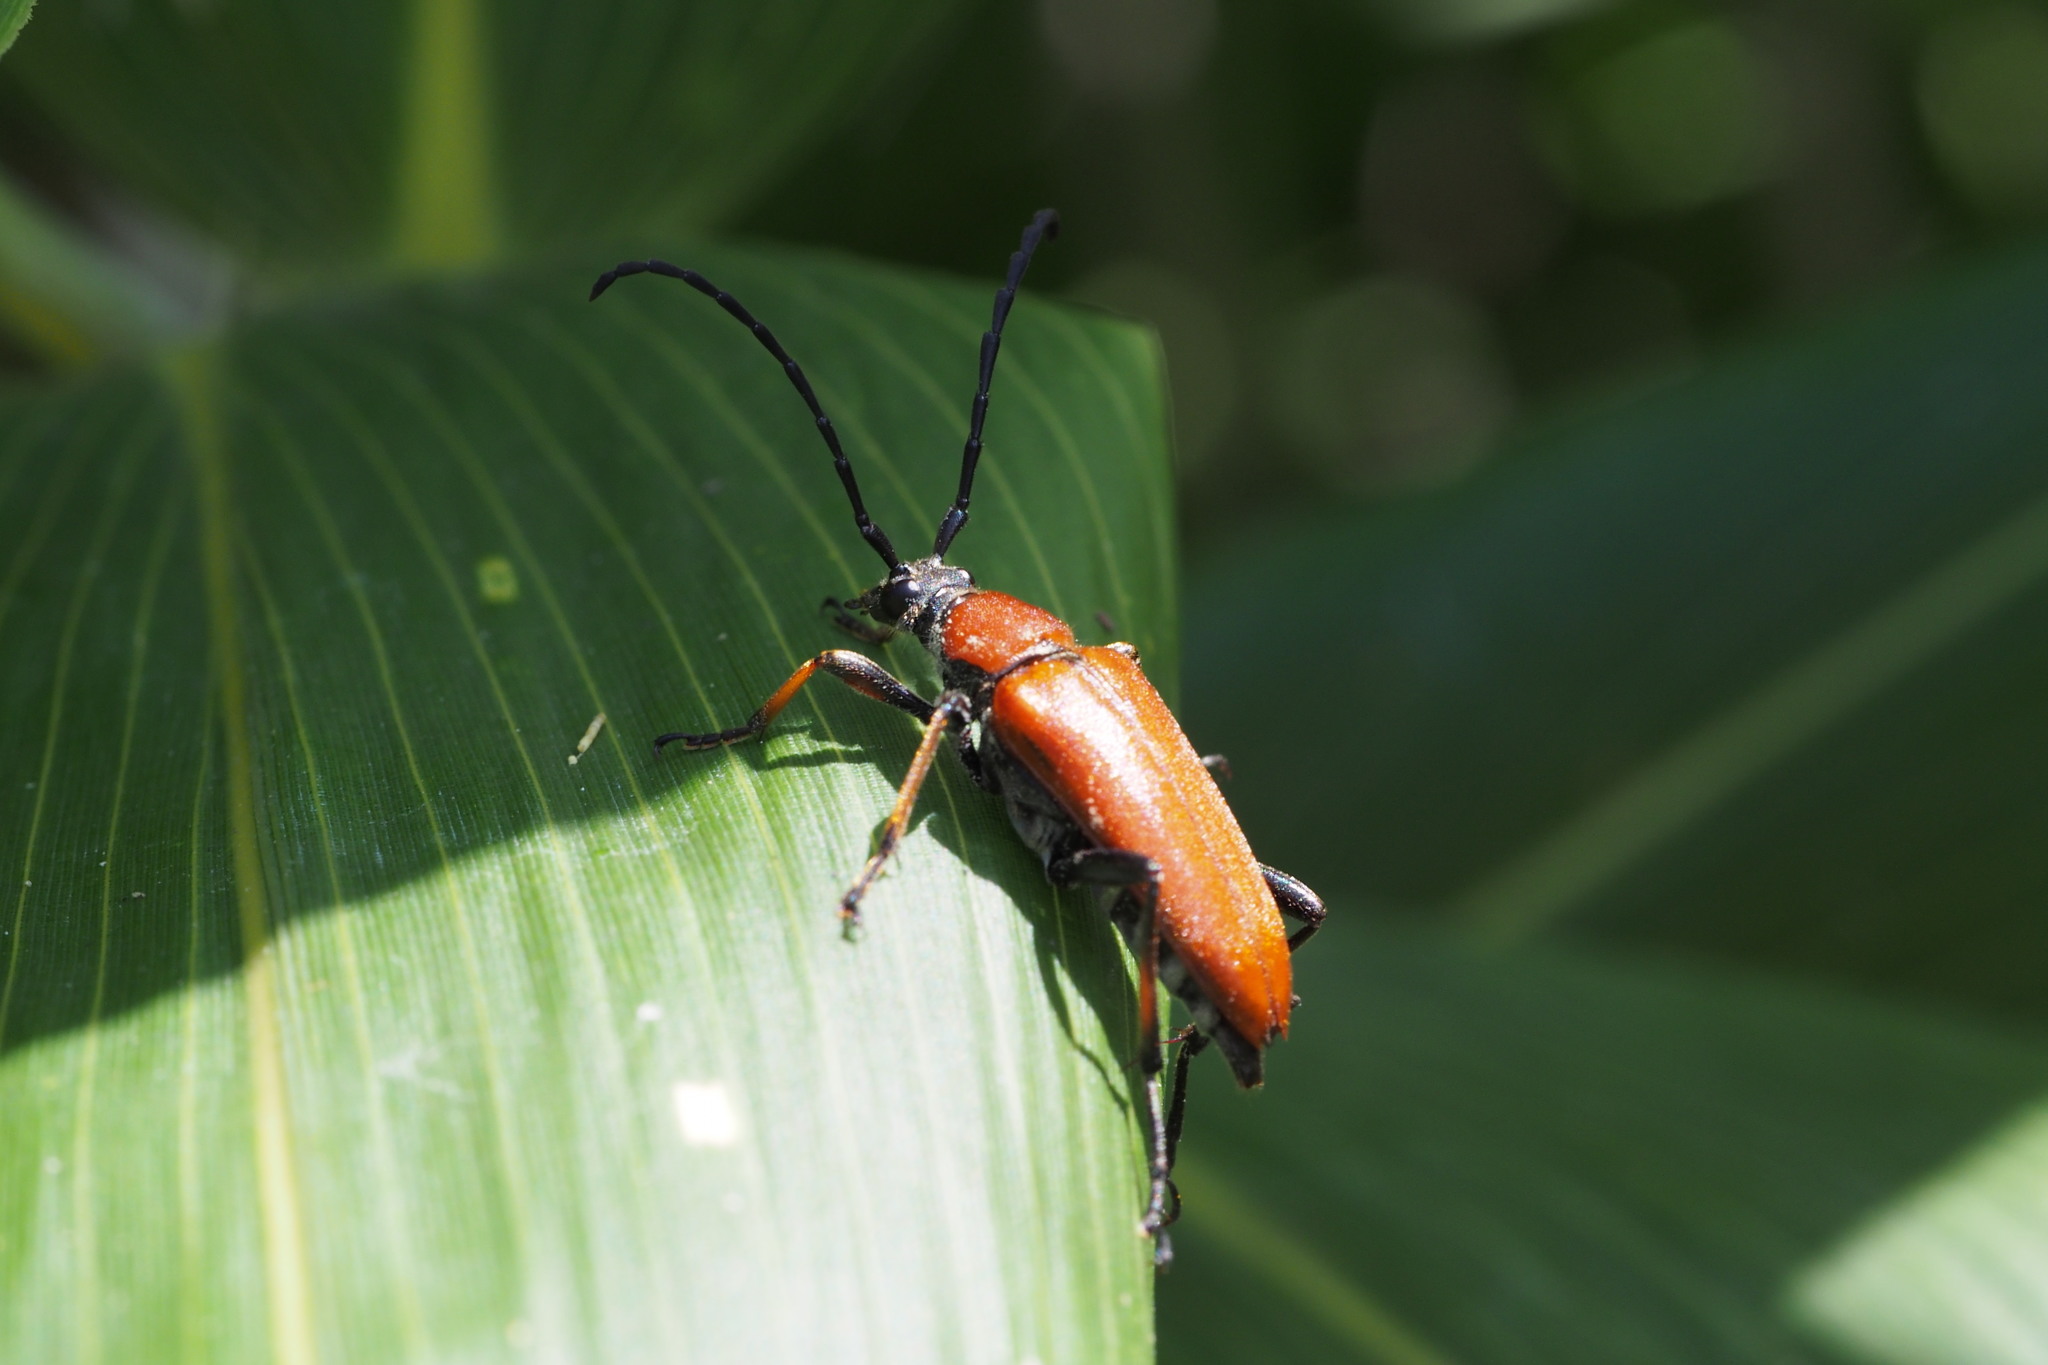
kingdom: Animalia
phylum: Arthropoda
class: Insecta
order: Coleoptera
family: Cerambycidae
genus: Stictoleptura
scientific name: Stictoleptura dichroa
